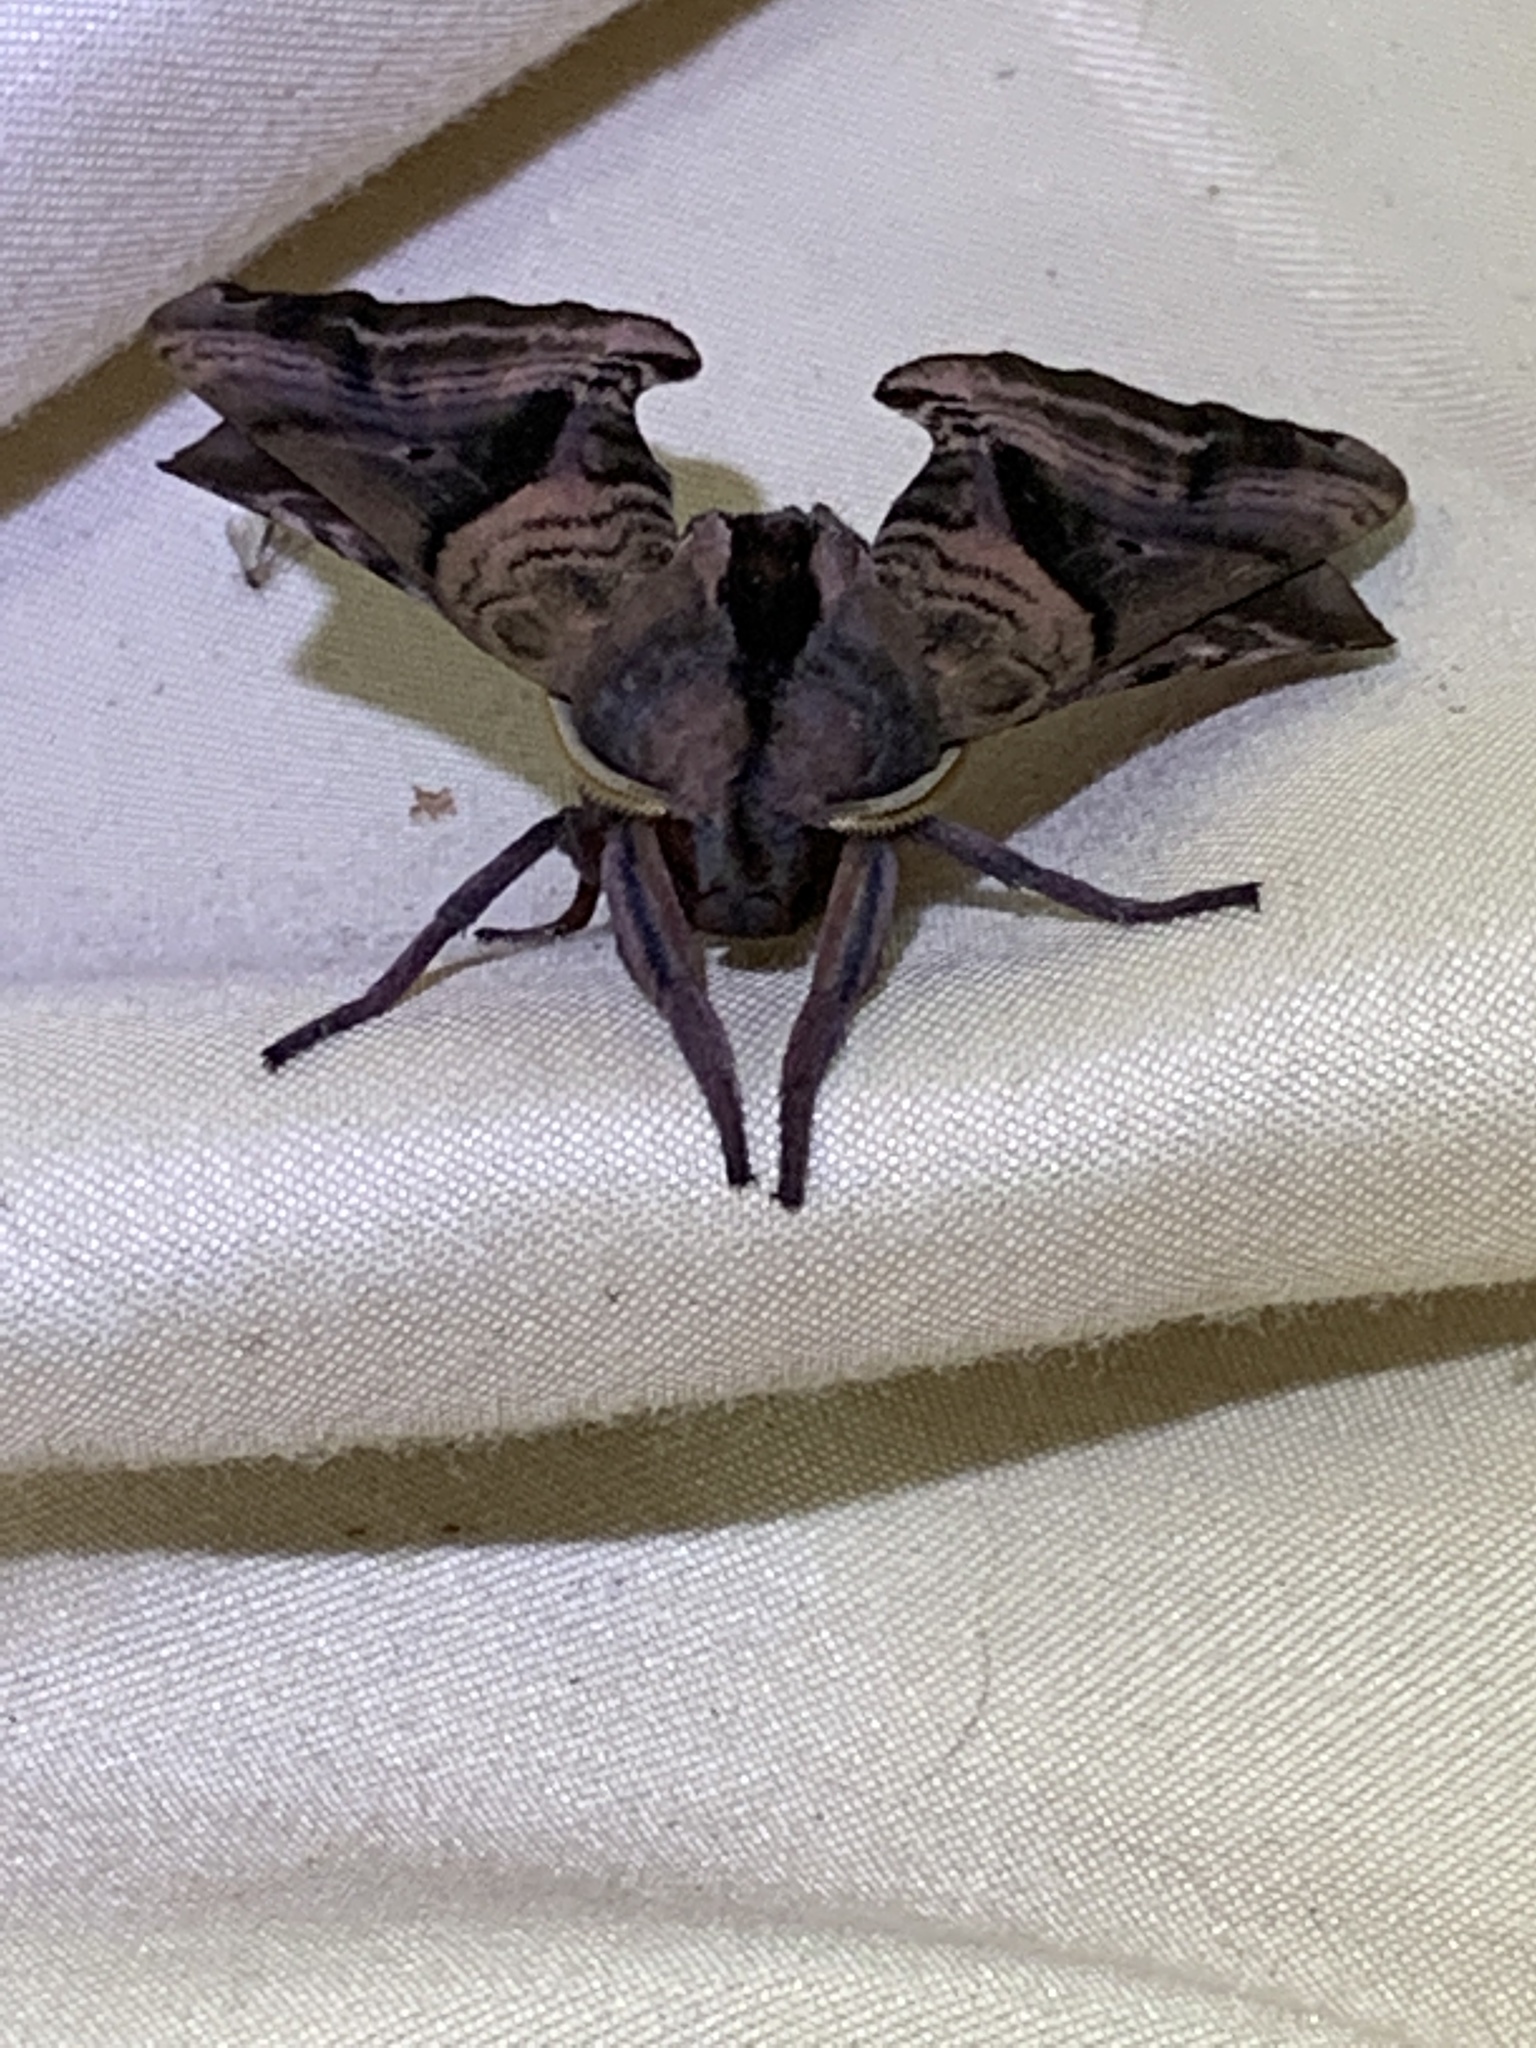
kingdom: Animalia
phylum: Arthropoda
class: Insecta
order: Lepidoptera
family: Sphingidae
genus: Paonias
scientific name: Paonias excaecata
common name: Blind-eyed sphinx
